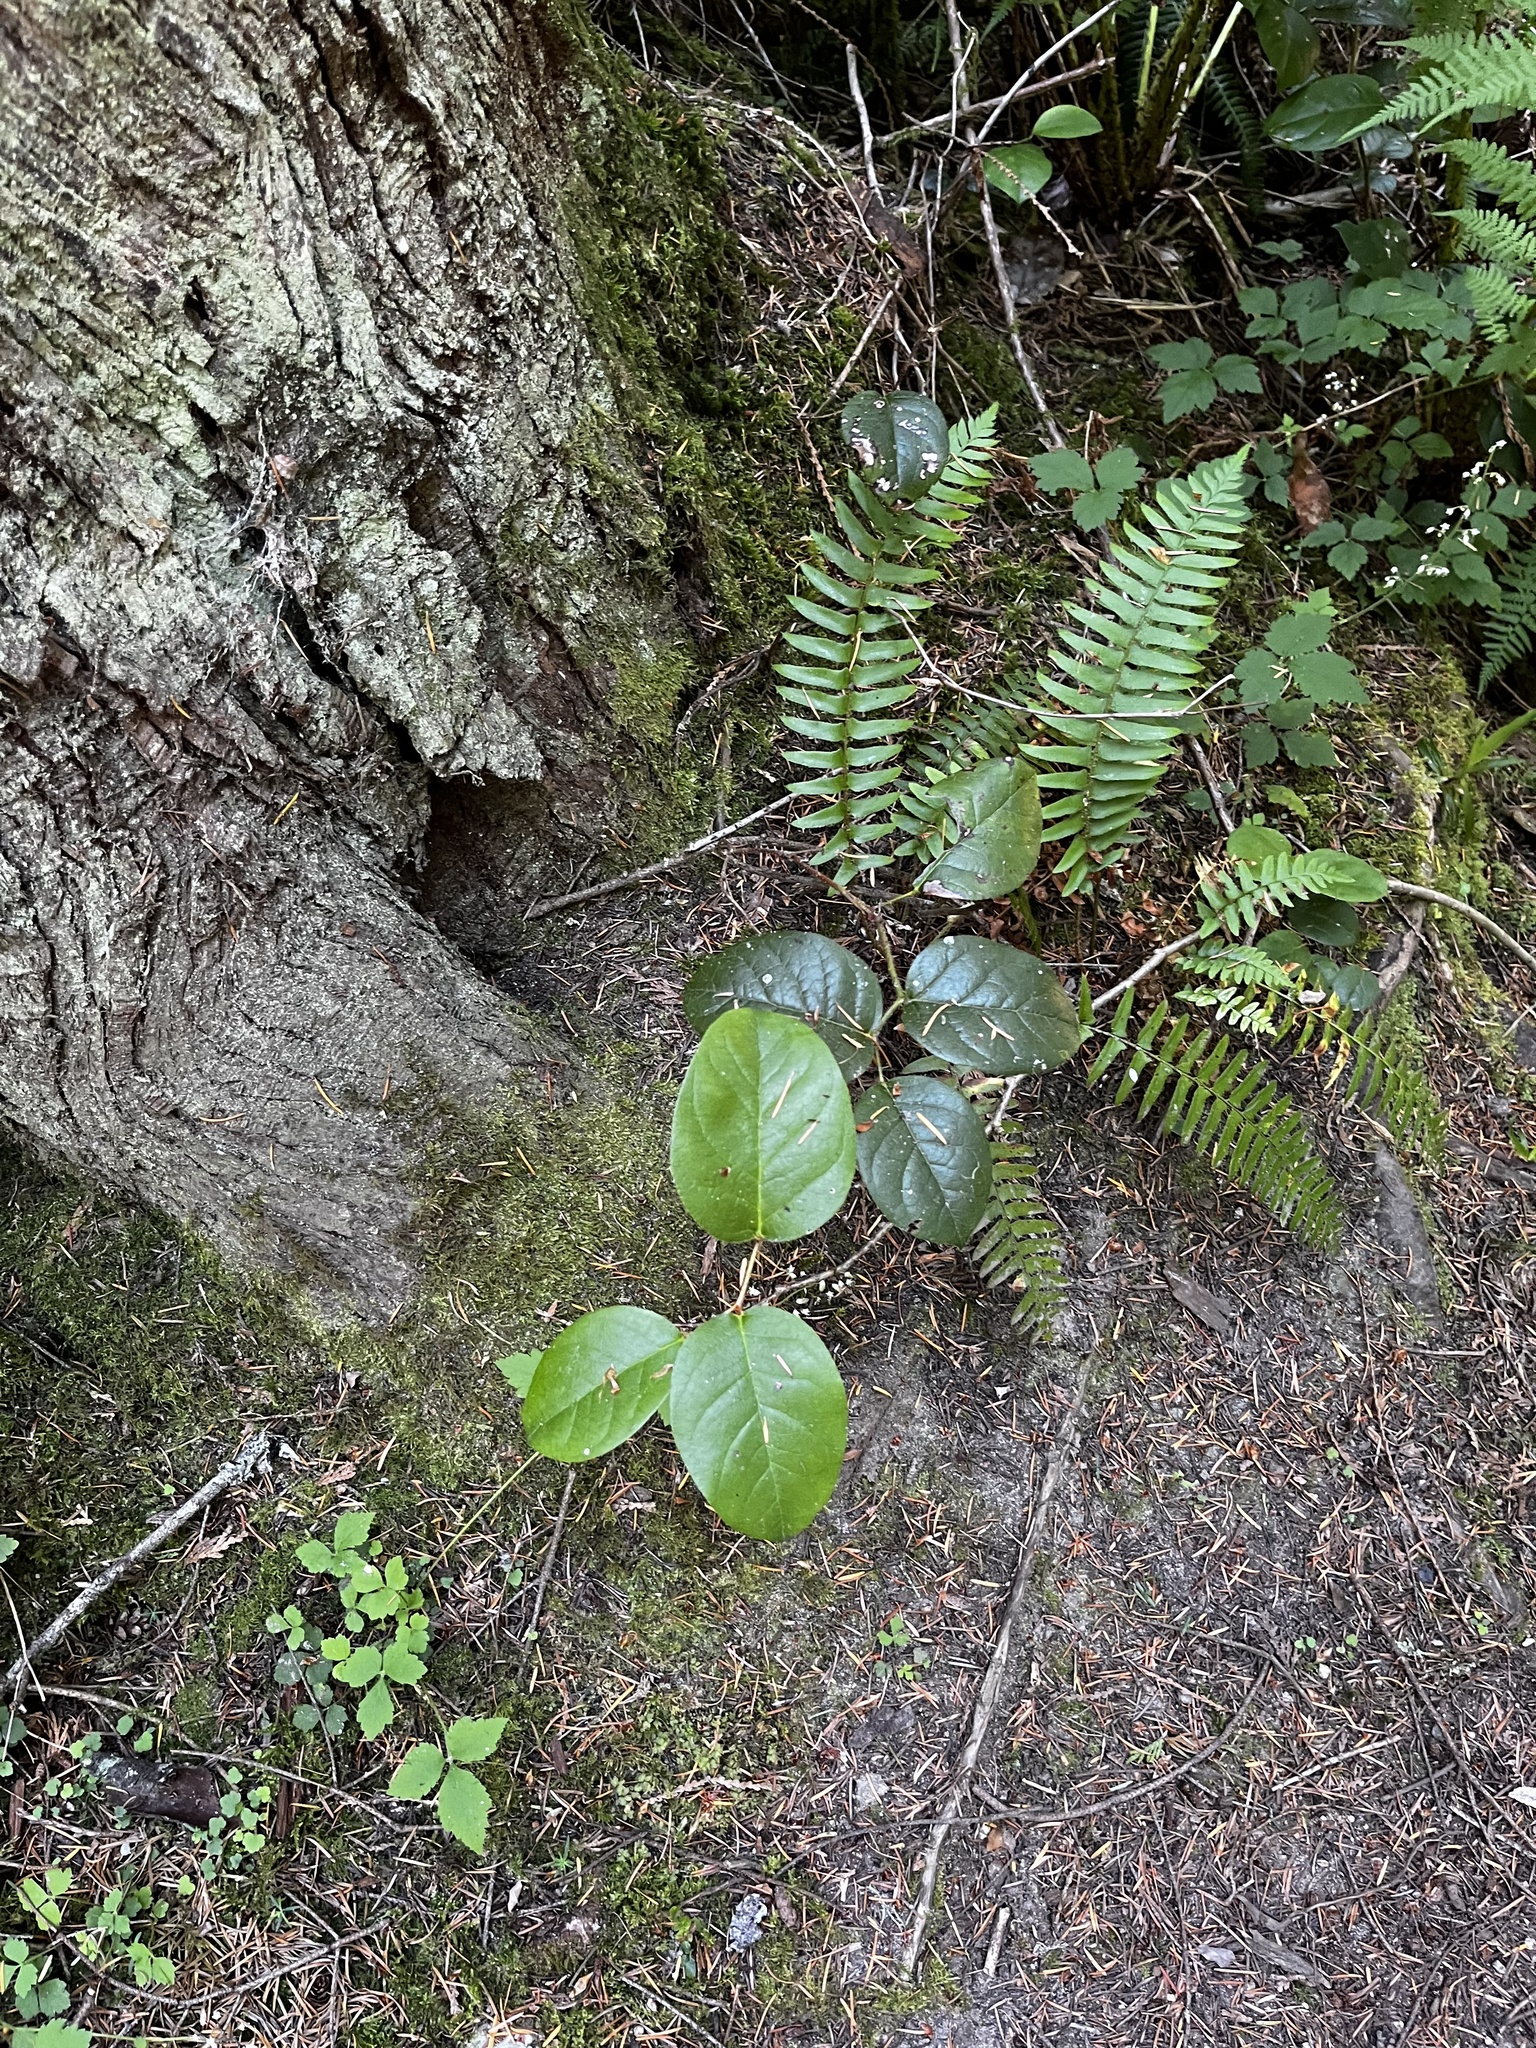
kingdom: Plantae
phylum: Tracheophyta
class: Magnoliopsida
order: Ericales
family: Ericaceae
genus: Gaultheria
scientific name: Gaultheria shallon
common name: Shallon
